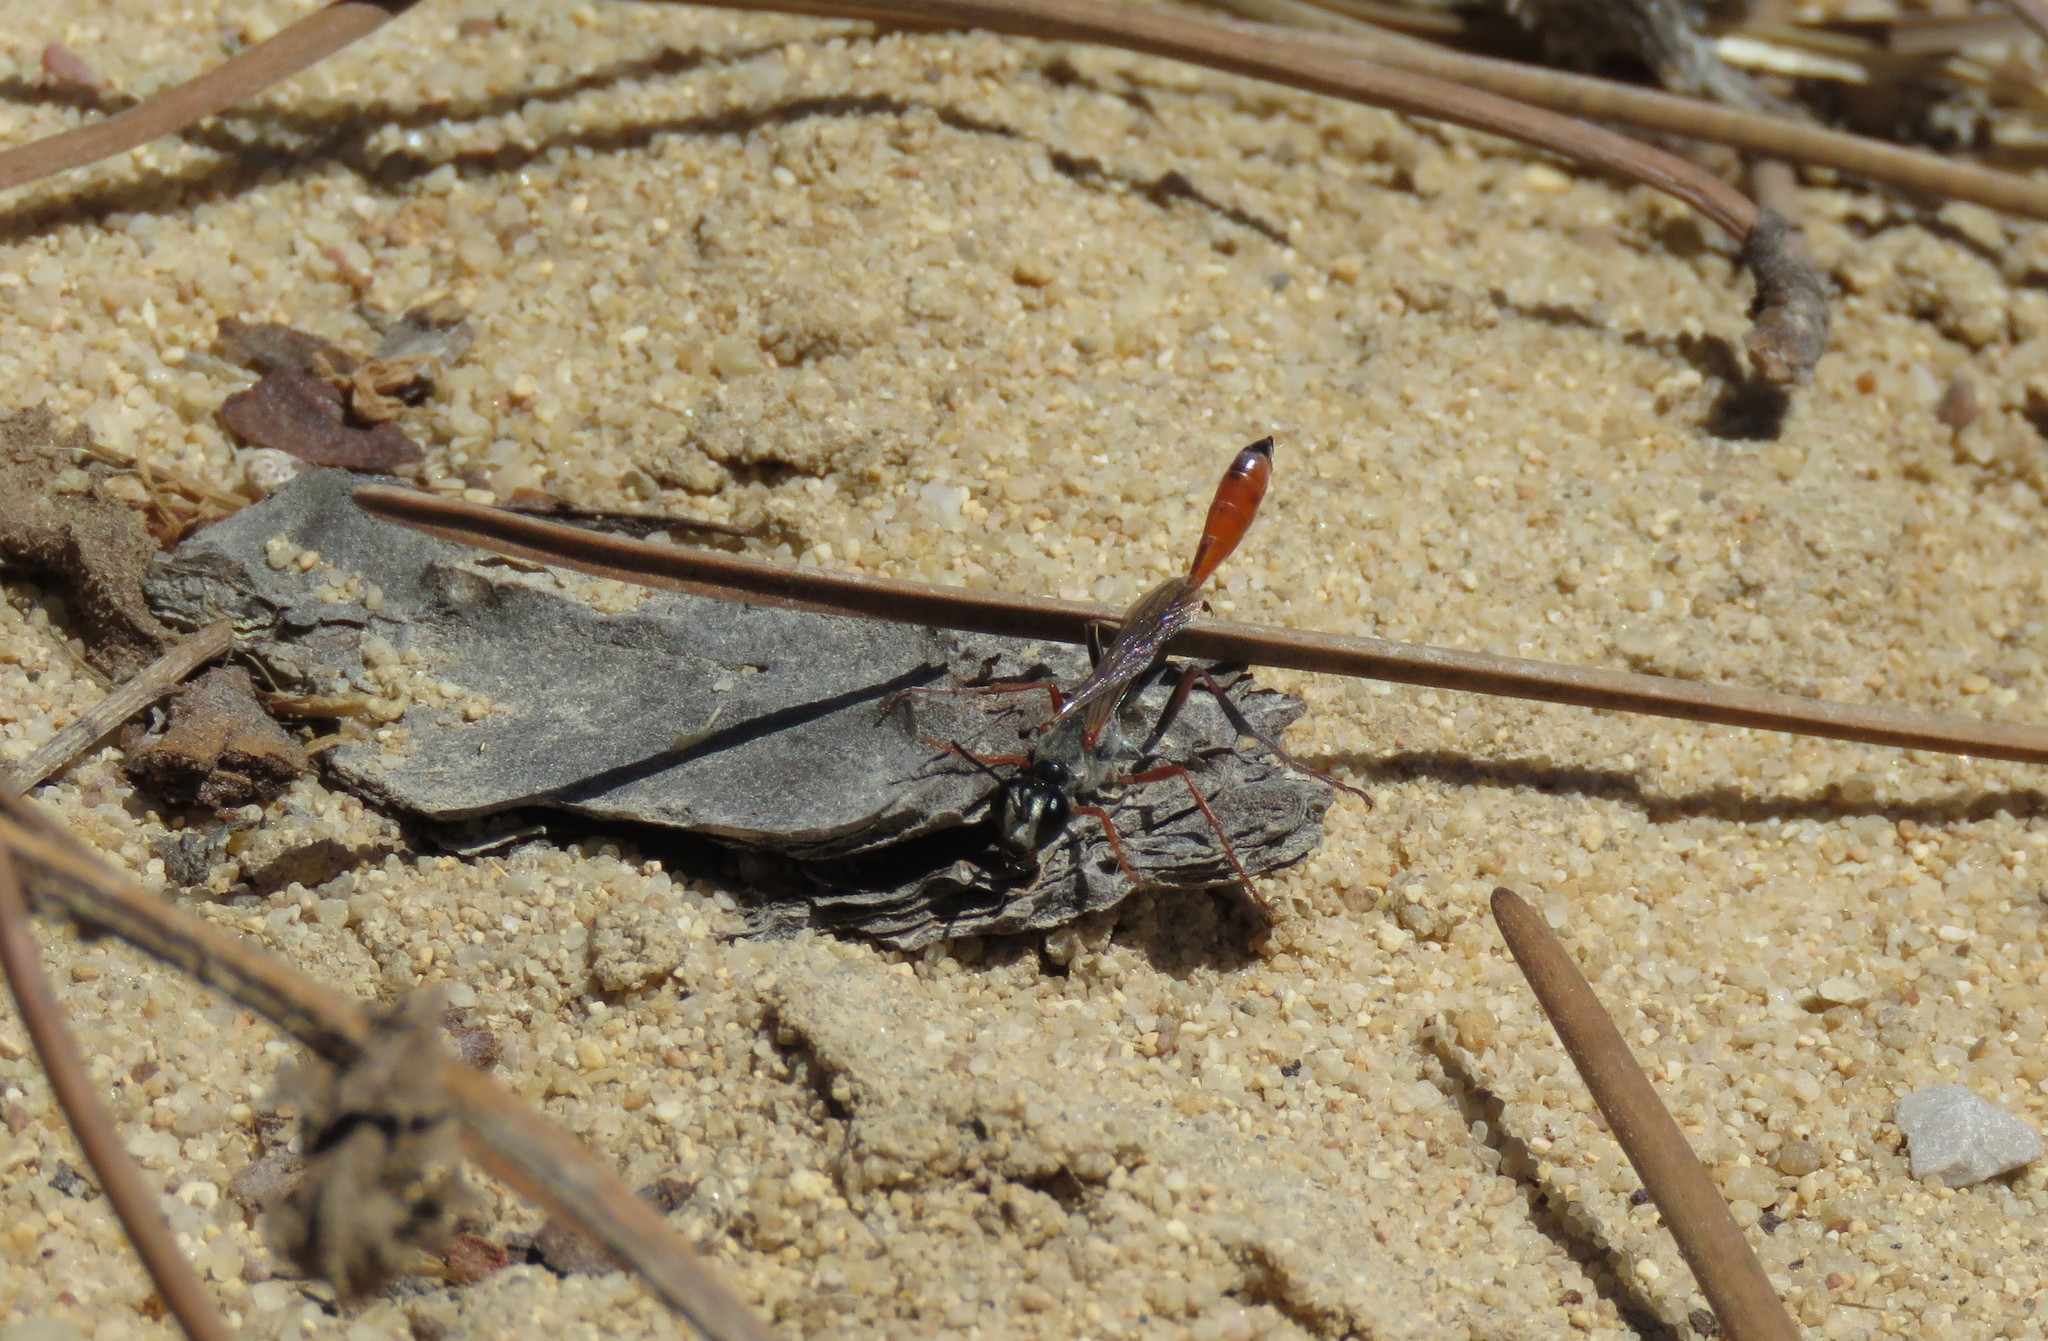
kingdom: Animalia
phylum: Arthropoda
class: Insecta
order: Hymenoptera
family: Sphecidae
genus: Ammophila
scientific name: Ammophila heydeni
